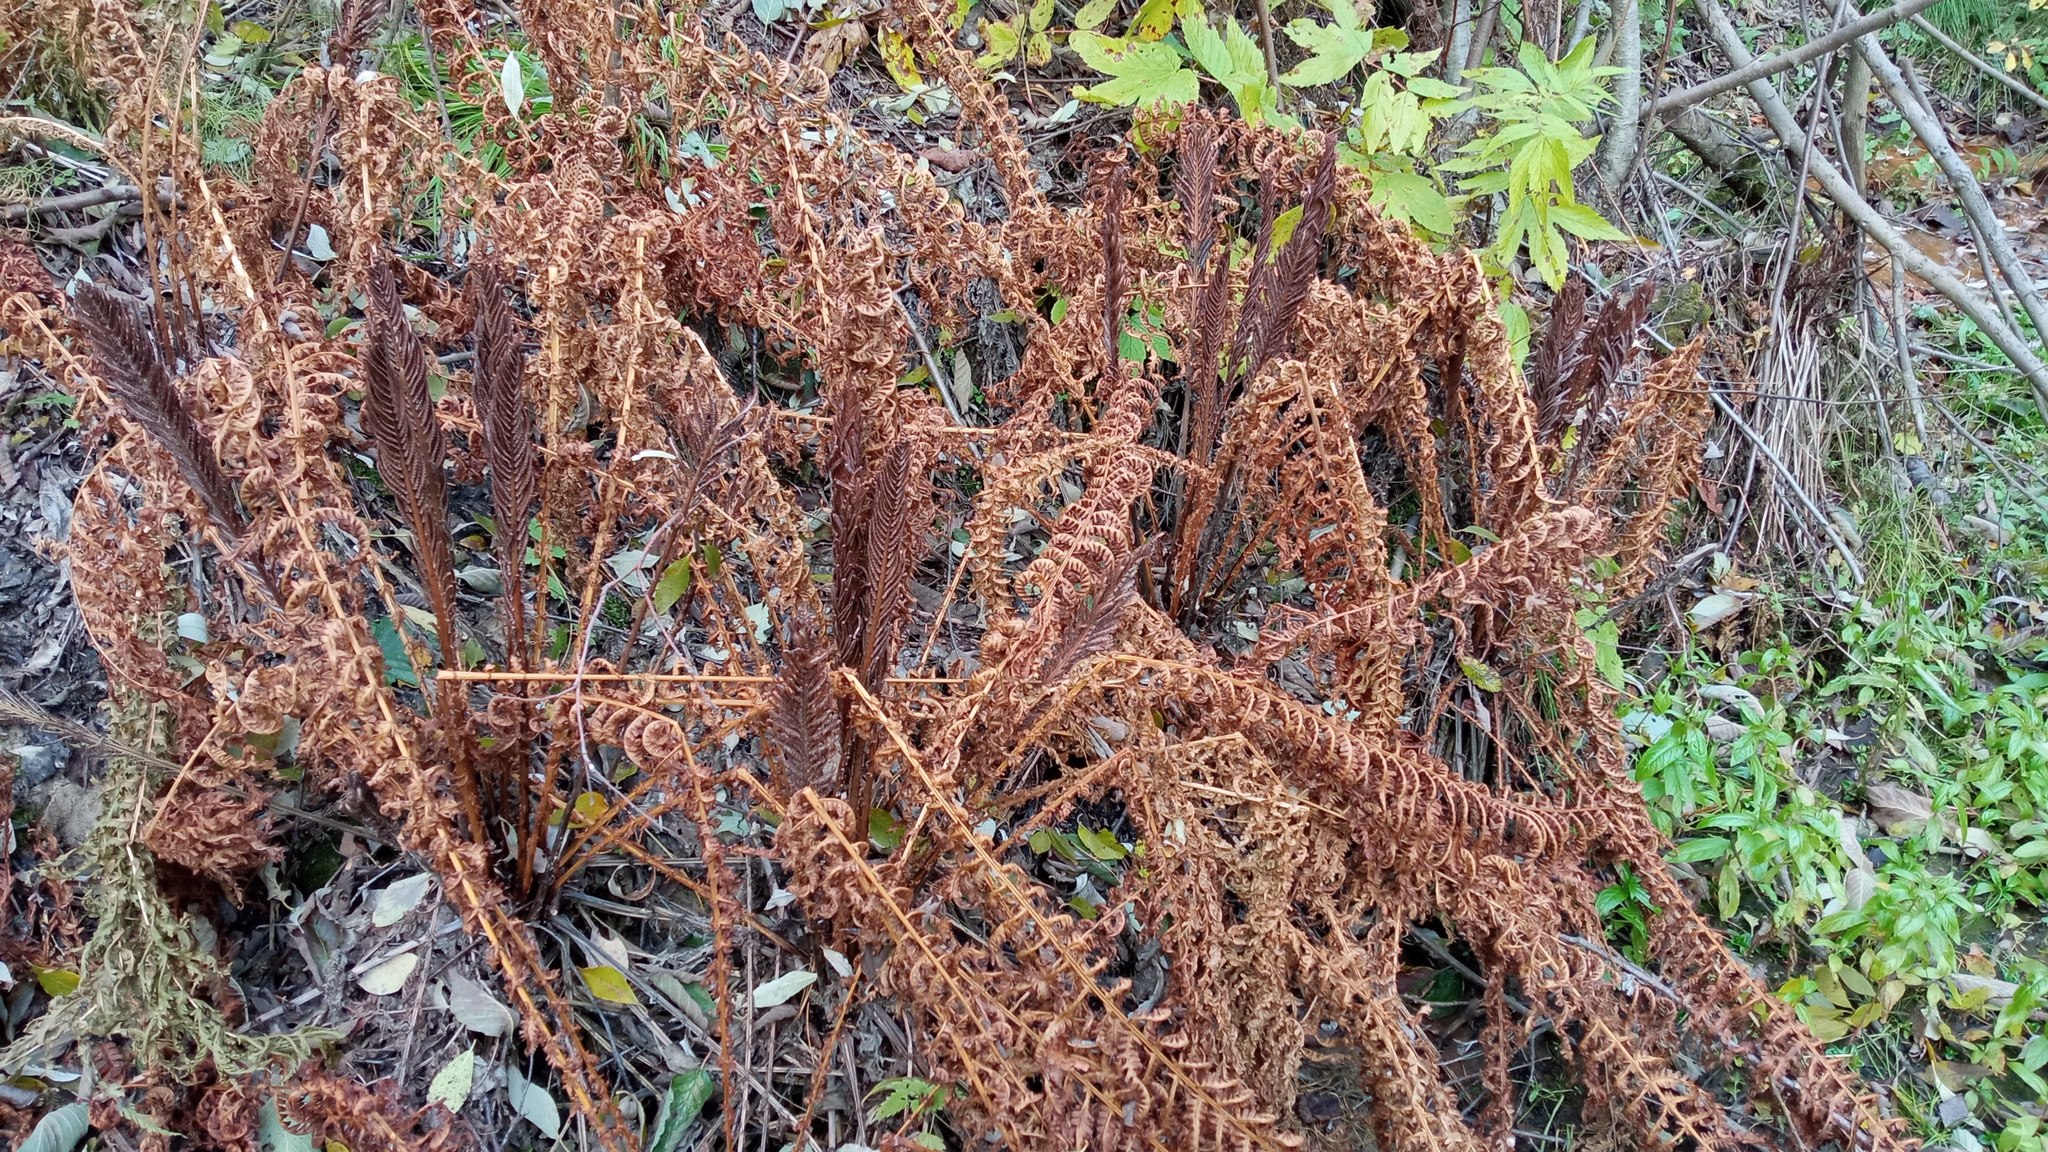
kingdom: Plantae
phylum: Tracheophyta
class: Polypodiopsida
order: Polypodiales
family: Onocleaceae
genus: Matteuccia
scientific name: Matteuccia struthiopteris
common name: Ostrich fern
